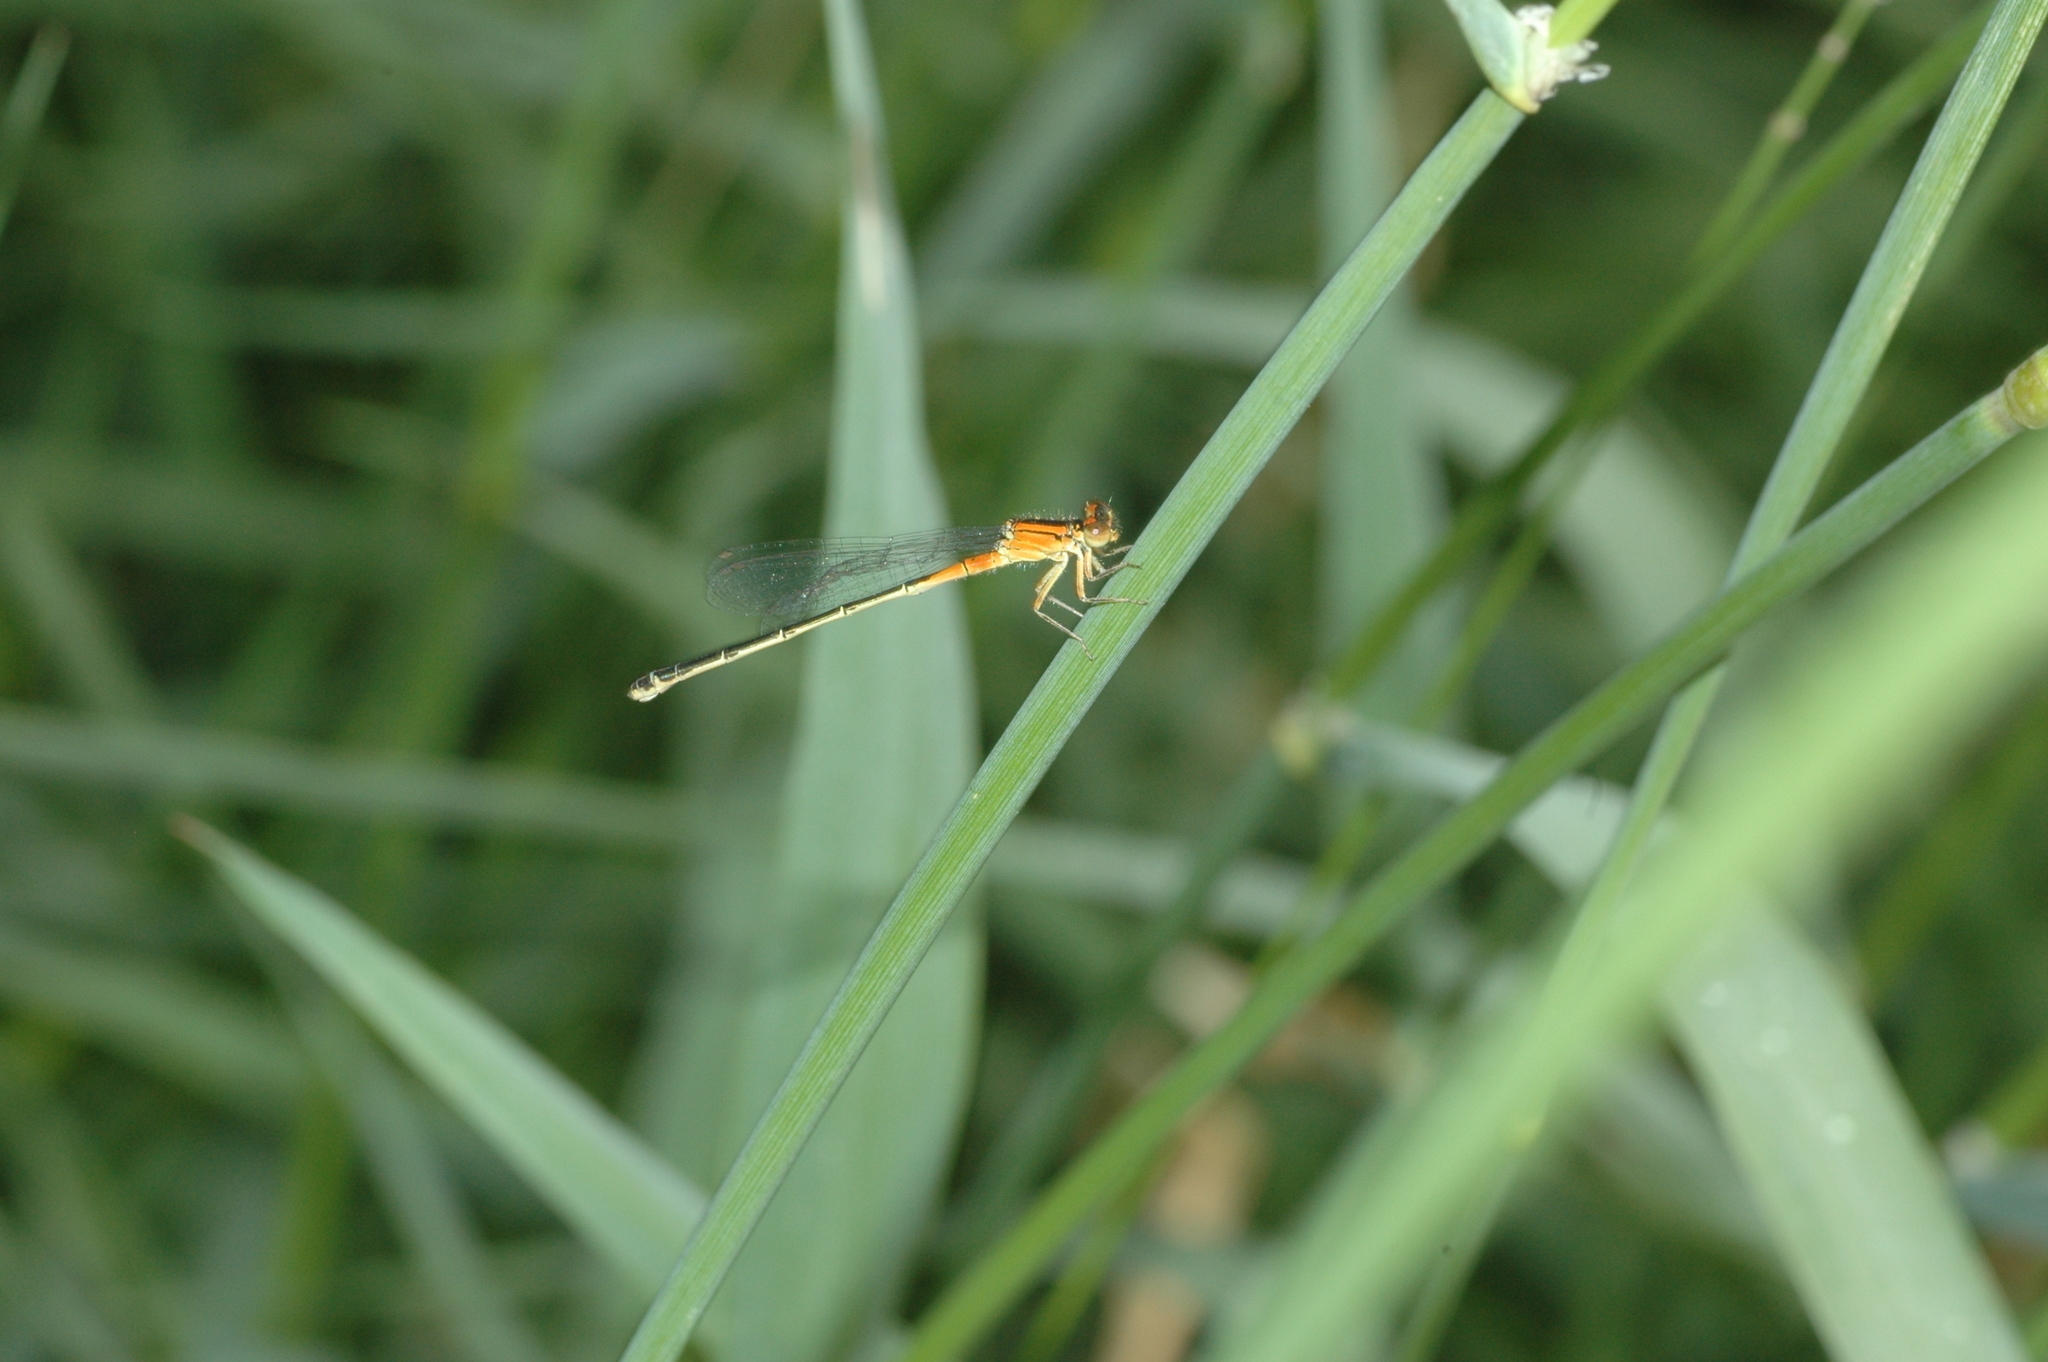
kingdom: Animalia
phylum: Arthropoda
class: Insecta
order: Odonata
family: Coenagrionidae
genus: Ischnura
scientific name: Ischnura verticalis
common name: Eastern forktail
